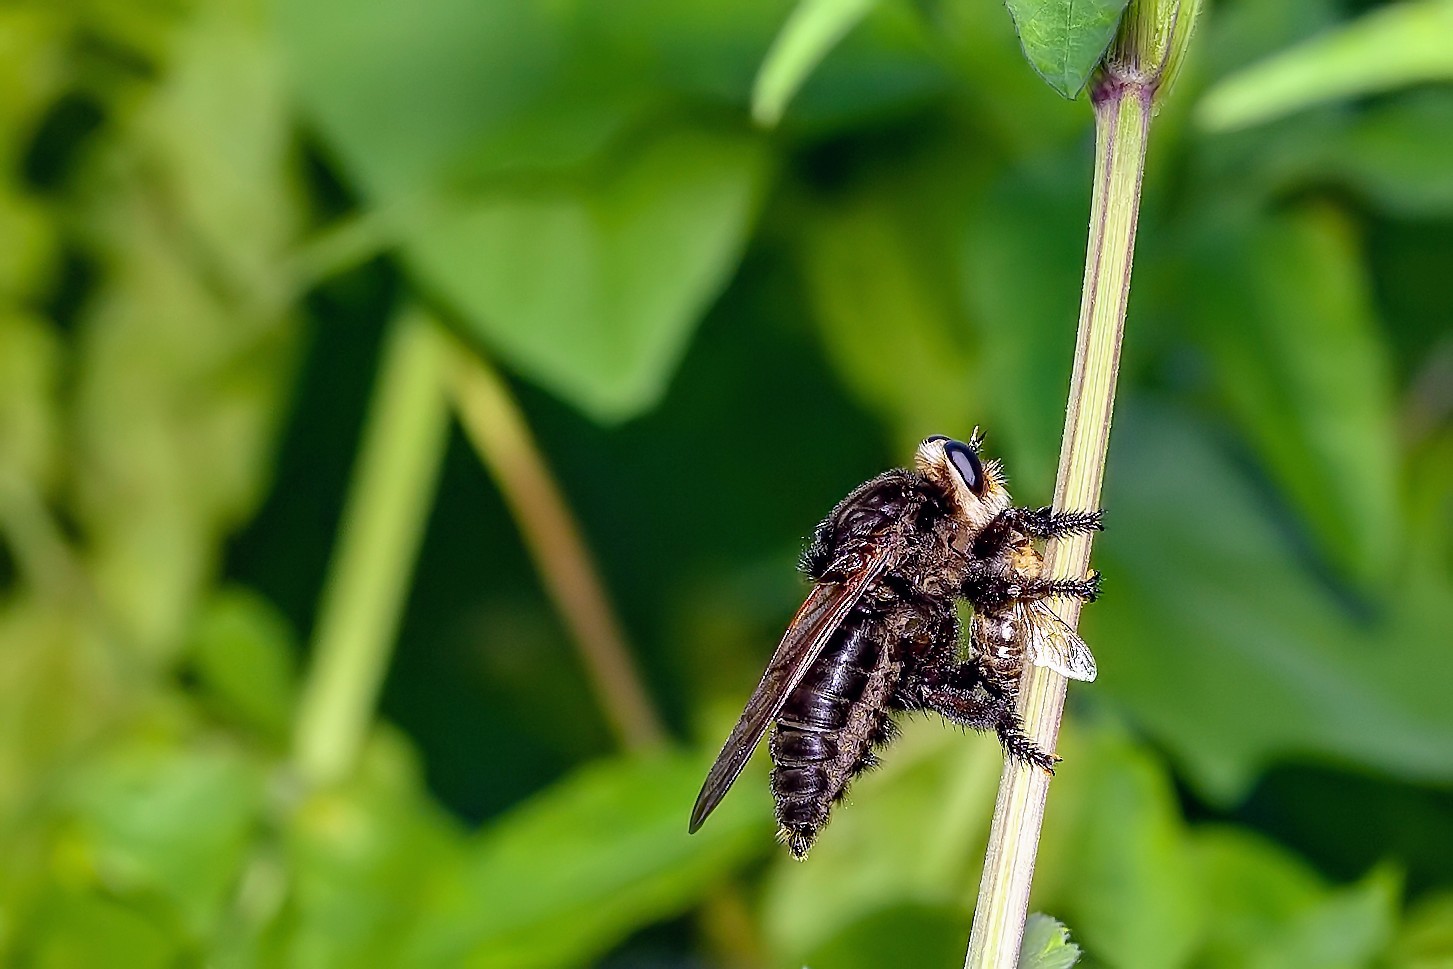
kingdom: Animalia
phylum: Arthropoda
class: Insecta
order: Diptera
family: Asilidae
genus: Mallophora
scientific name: Mallophora atra
